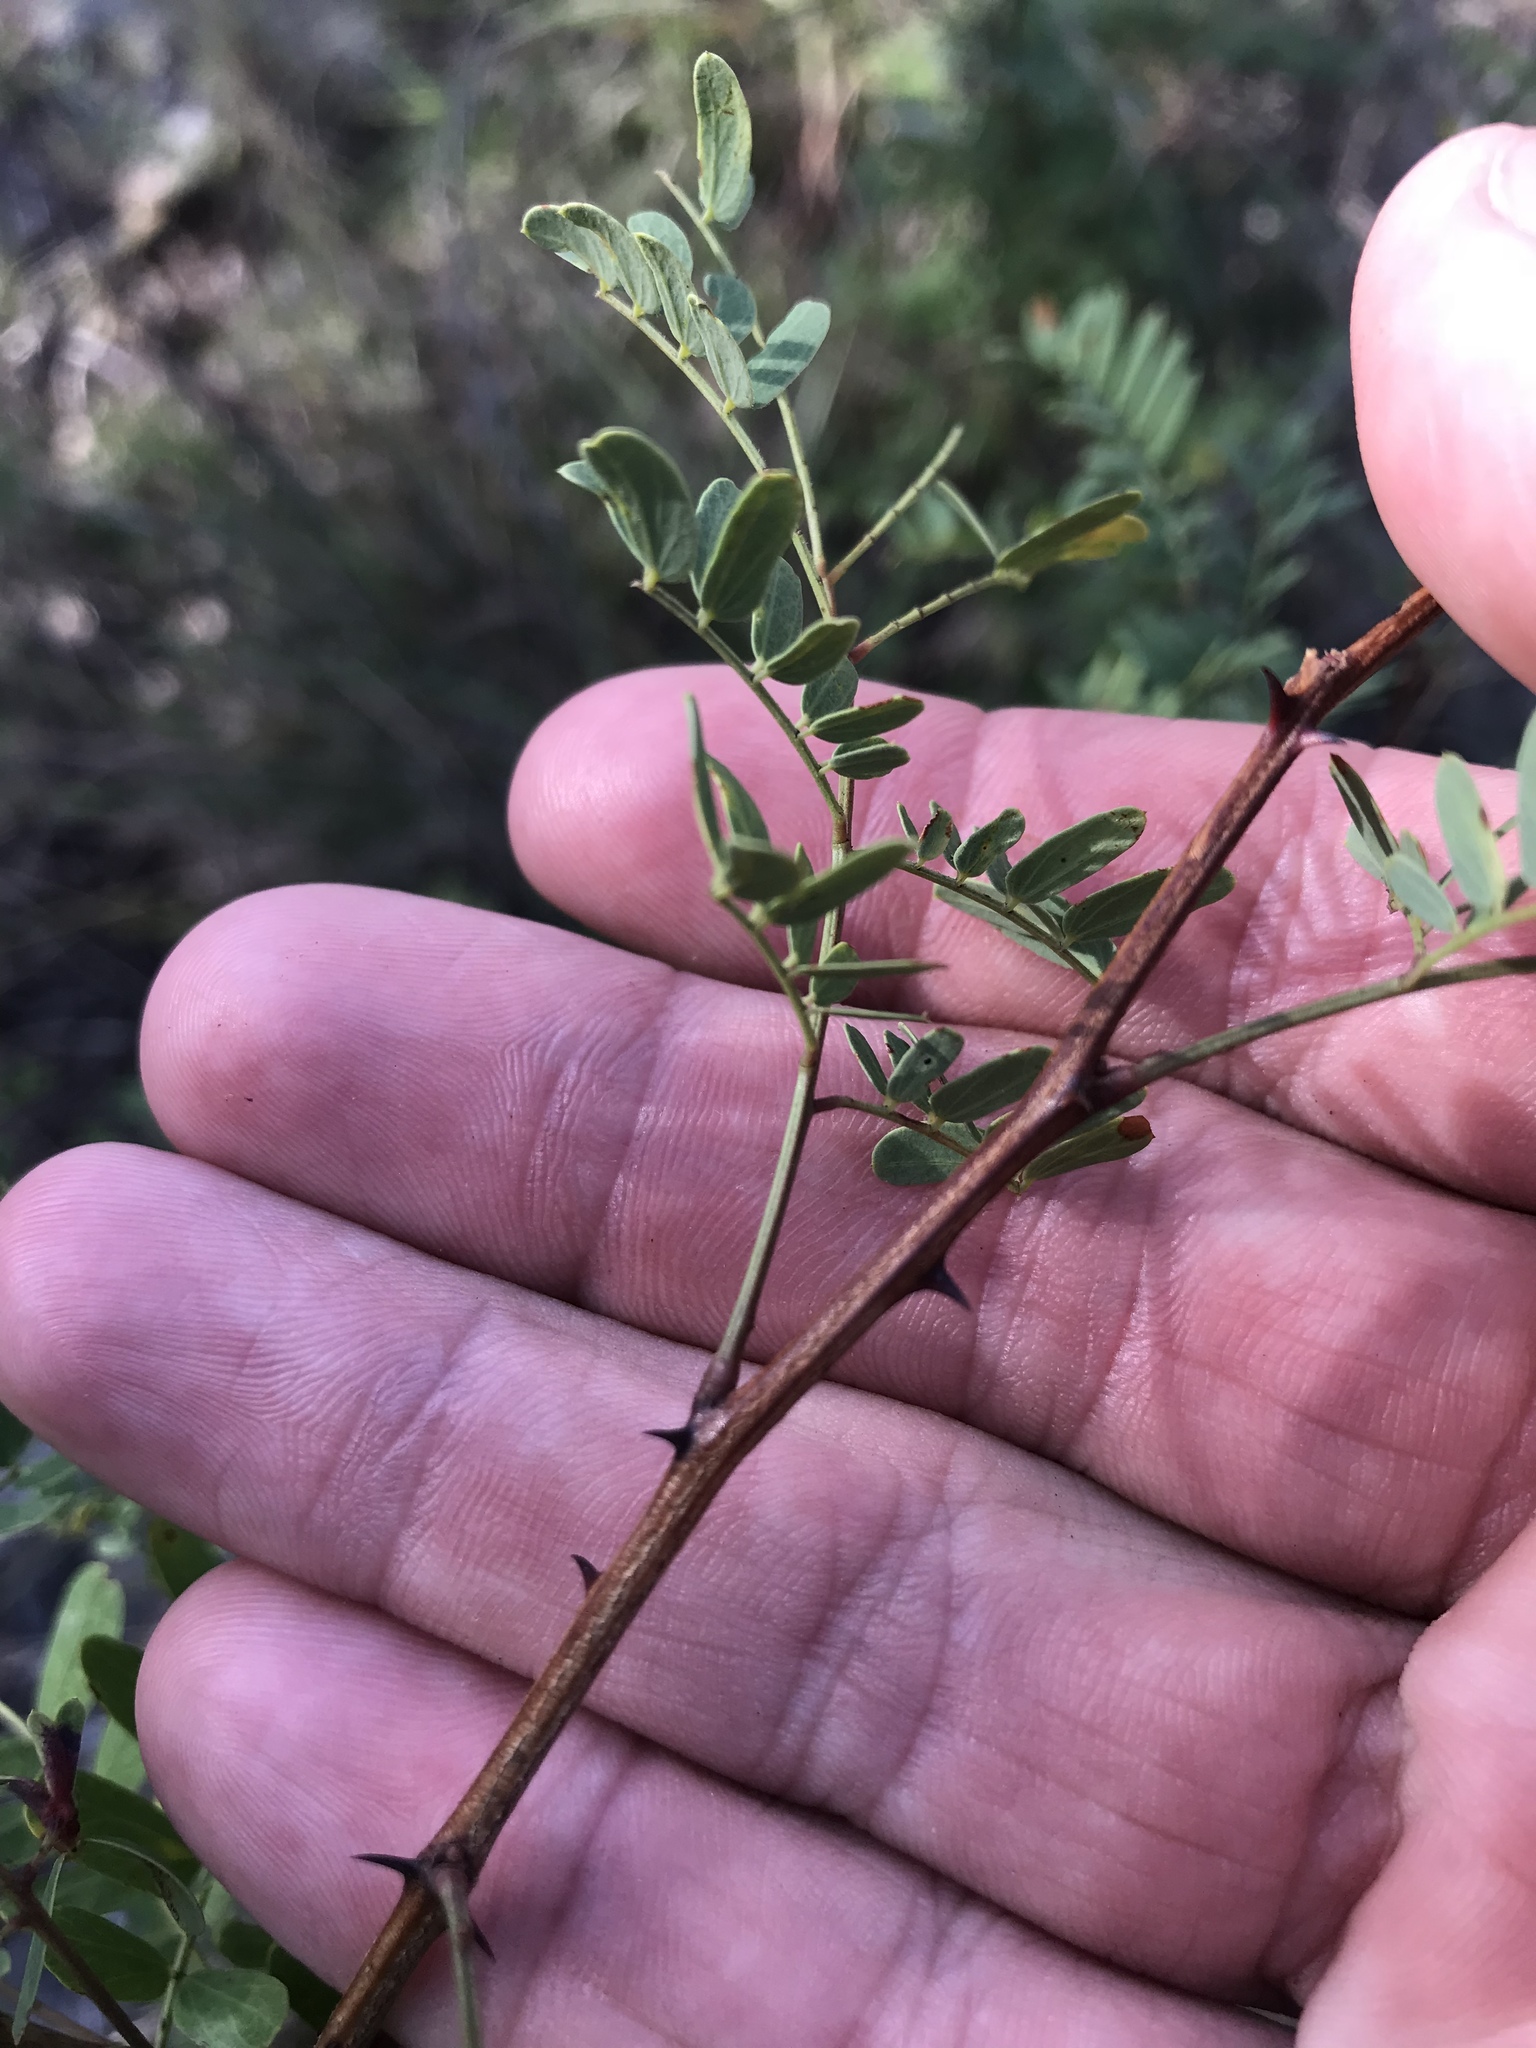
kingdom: Plantae
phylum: Tracheophyta
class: Magnoliopsida
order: Fabales
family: Fabaceae
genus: Senegalia
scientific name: Senegalia roemeriana
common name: Roemer's acacia
